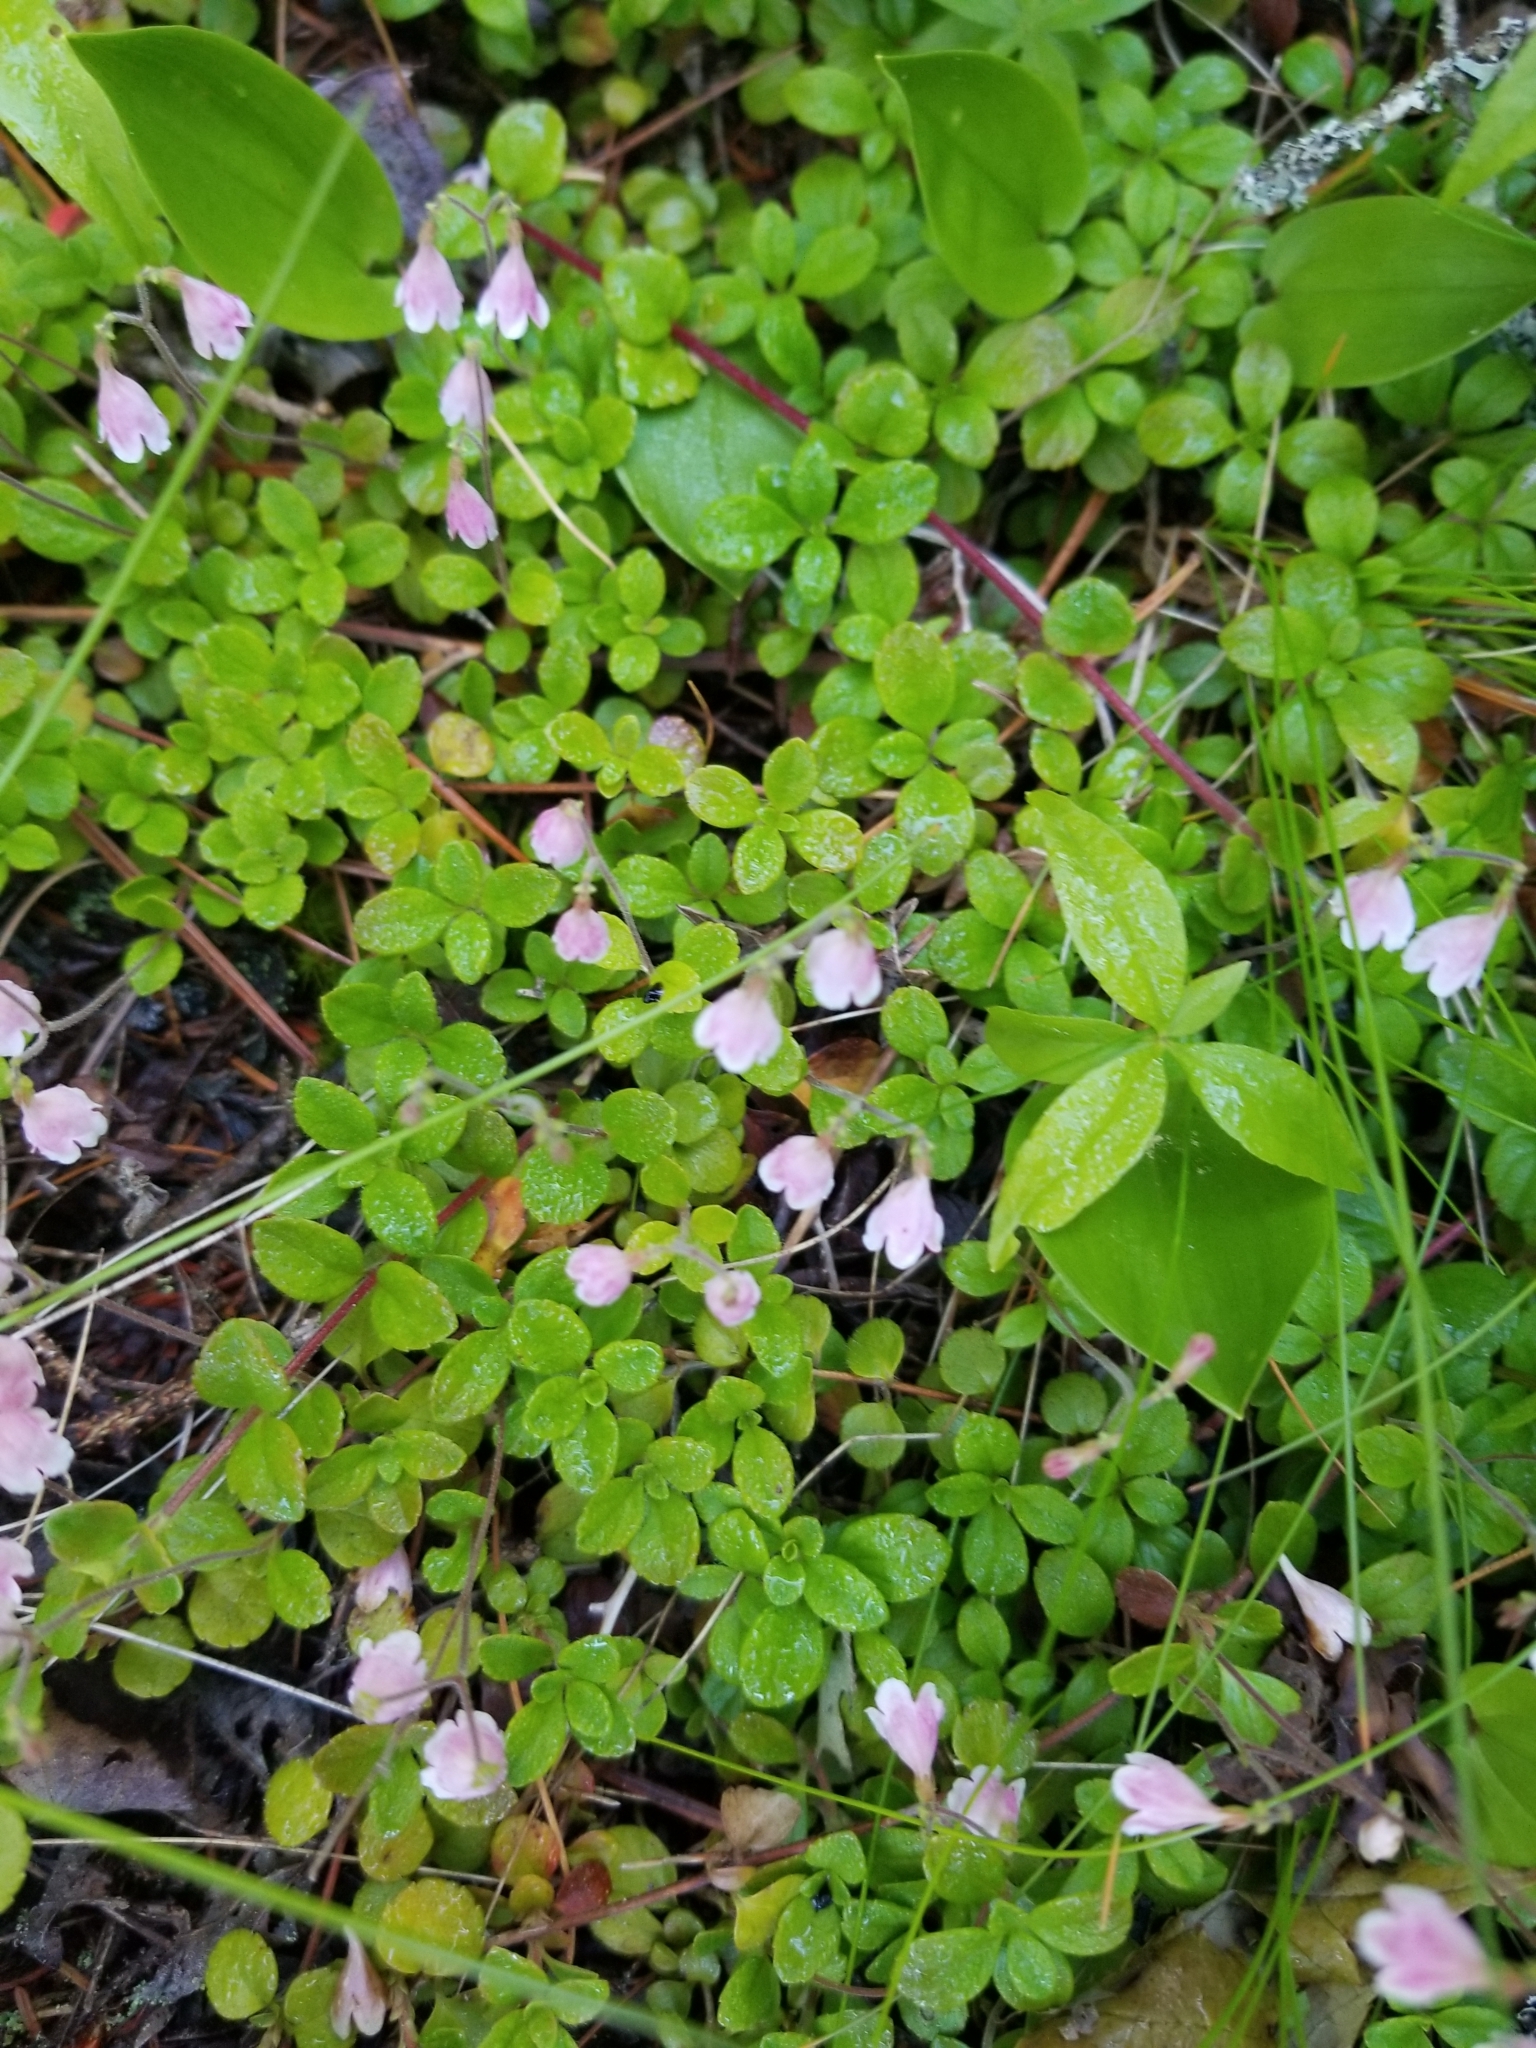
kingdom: Plantae
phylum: Tracheophyta
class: Magnoliopsida
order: Dipsacales
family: Caprifoliaceae
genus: Linnaea
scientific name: Linnaea borealis
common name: Twinflower
